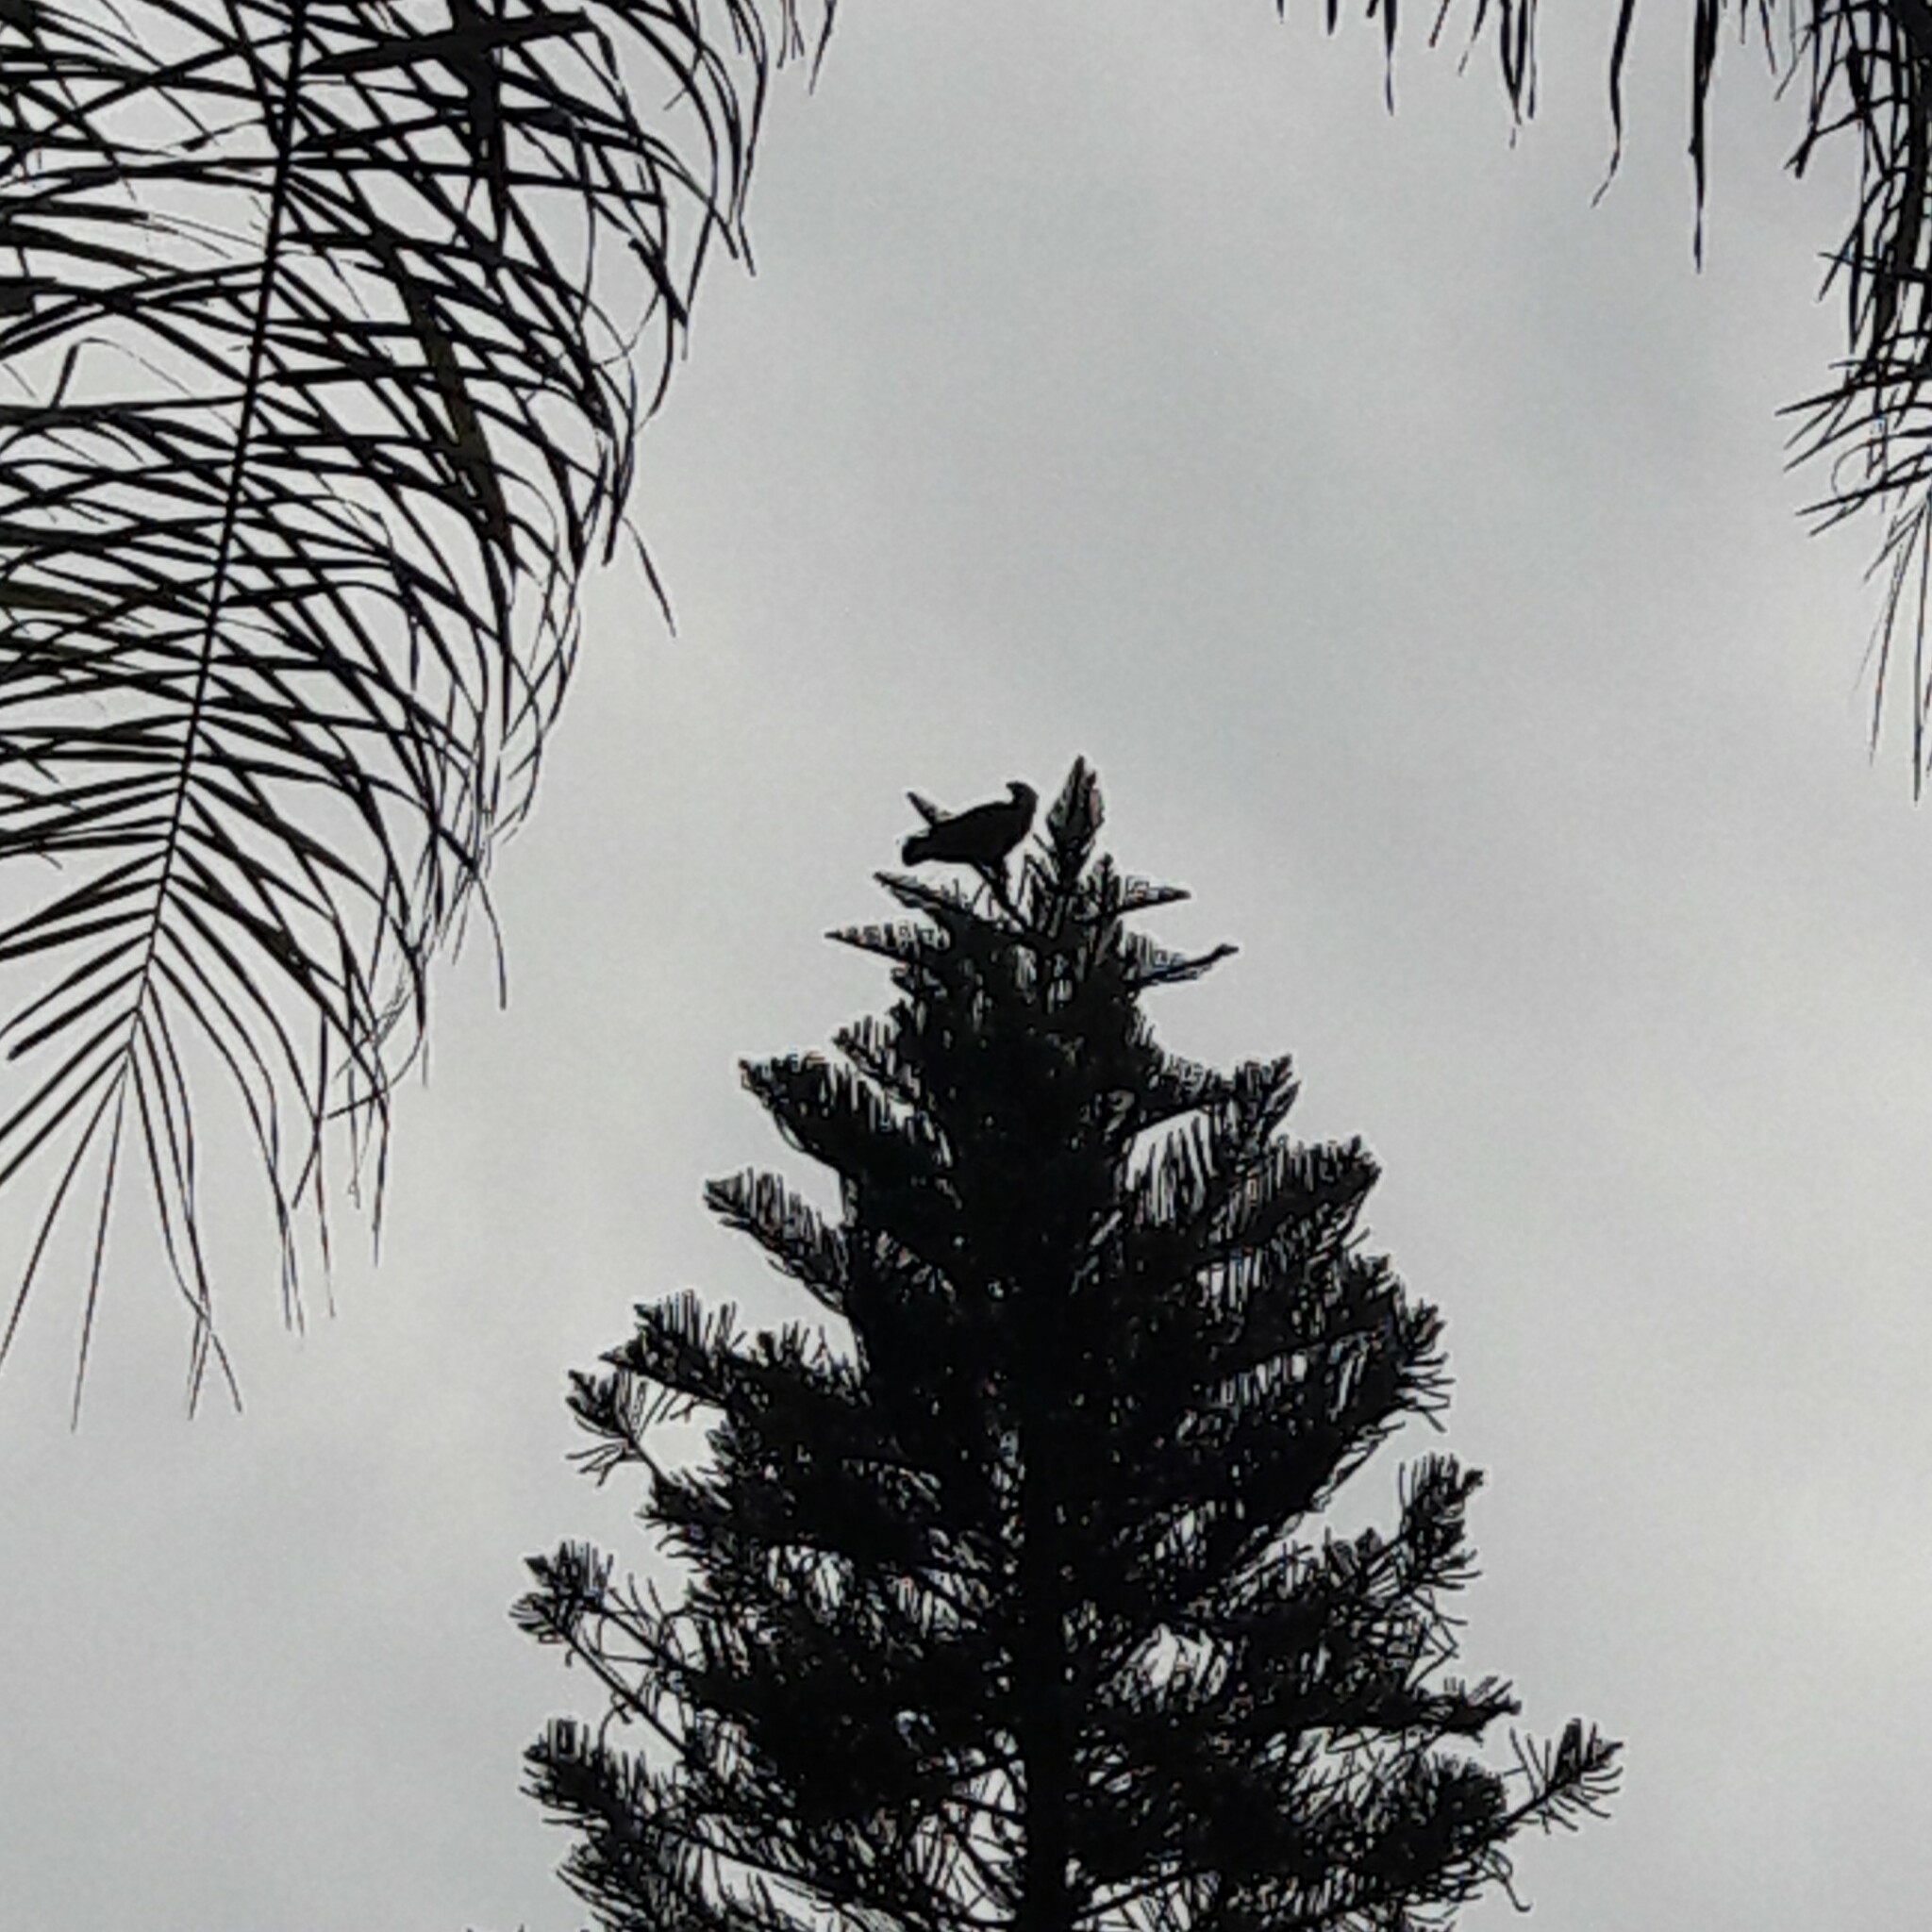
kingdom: Animalia
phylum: Chordata
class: Aves
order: Falconiformes
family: Falconidae
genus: Caracara
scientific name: Caracara plancus
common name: Southern caracara
